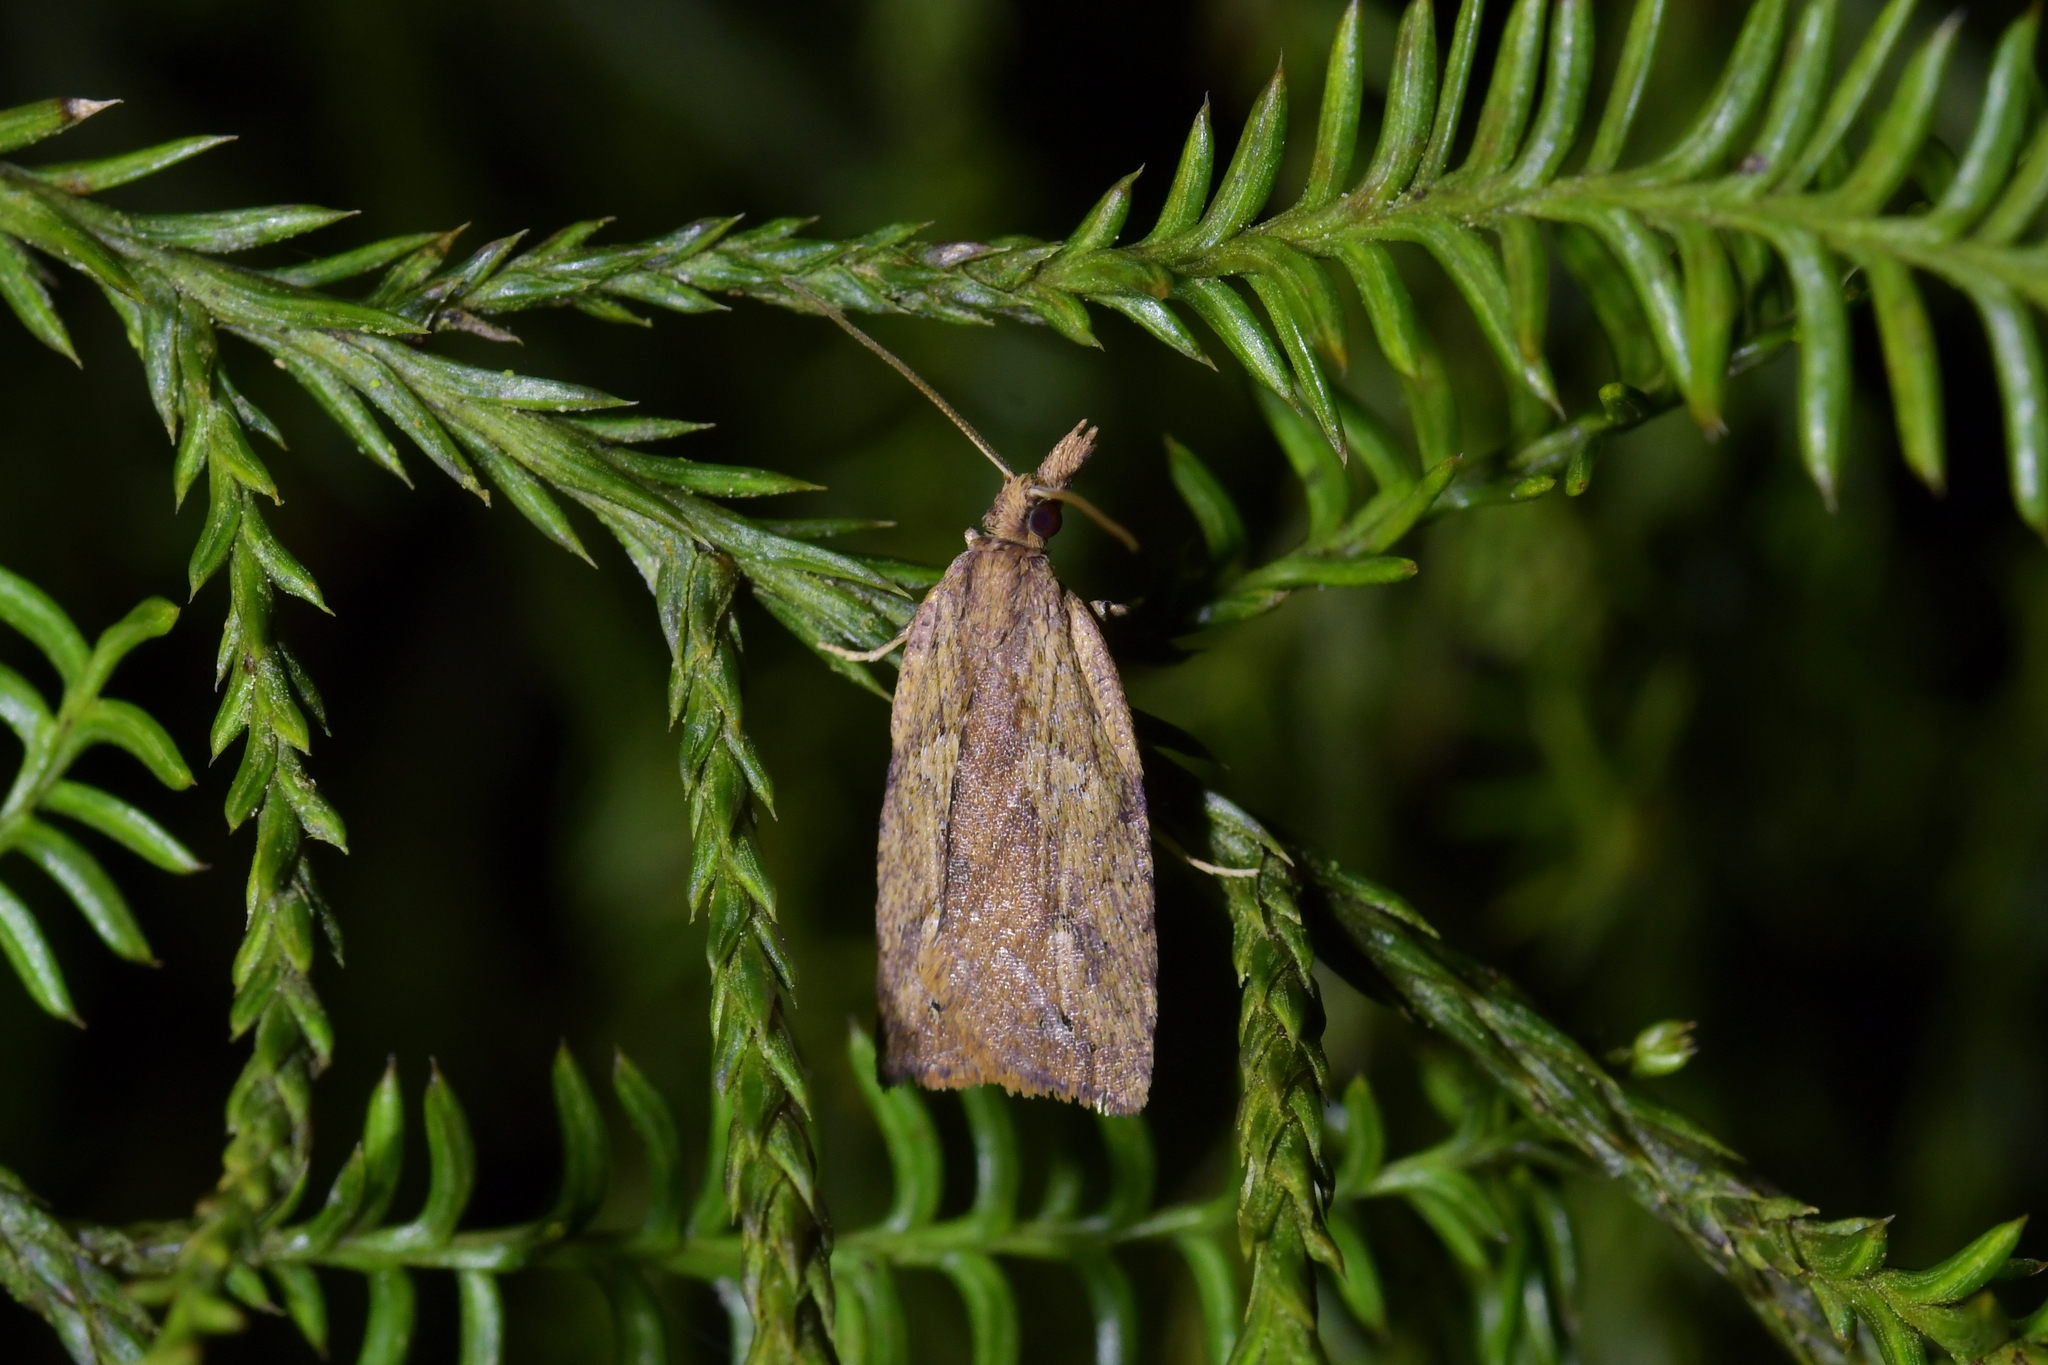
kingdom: Animalia
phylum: Arthropoda
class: Insecta
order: Lepidoptera
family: Tortricidae
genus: Planotortrix
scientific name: Planotortrix notophaea
